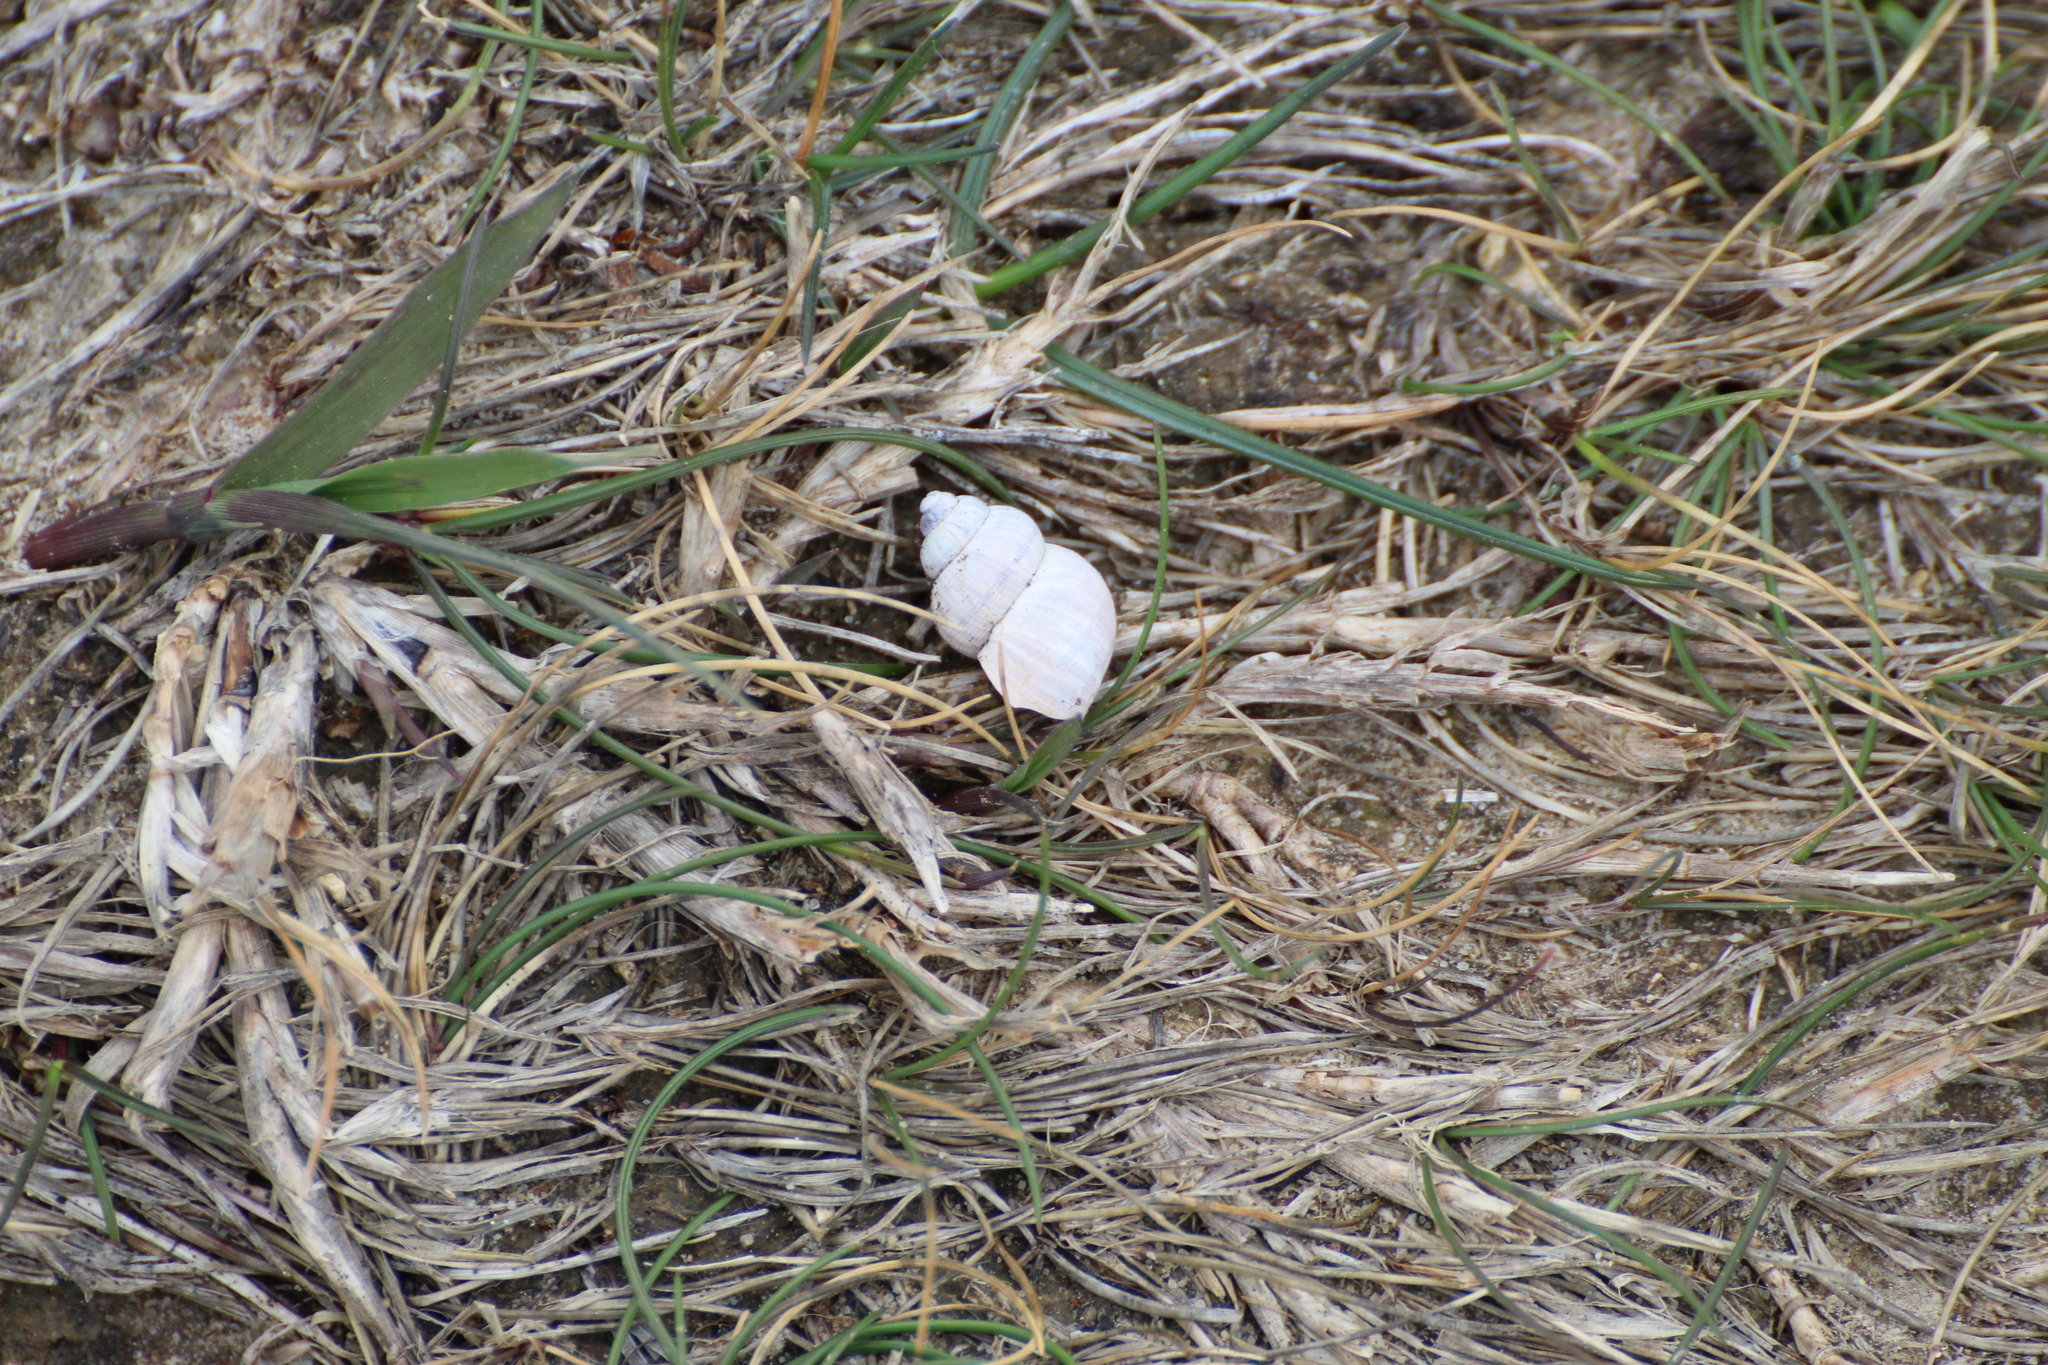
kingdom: Animalia
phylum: Mollusca
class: Gastropoda
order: Littorinimorpha
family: Pomatiidae
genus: Pomatias
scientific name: Pomatias elegans
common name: Red-mouthed snail
